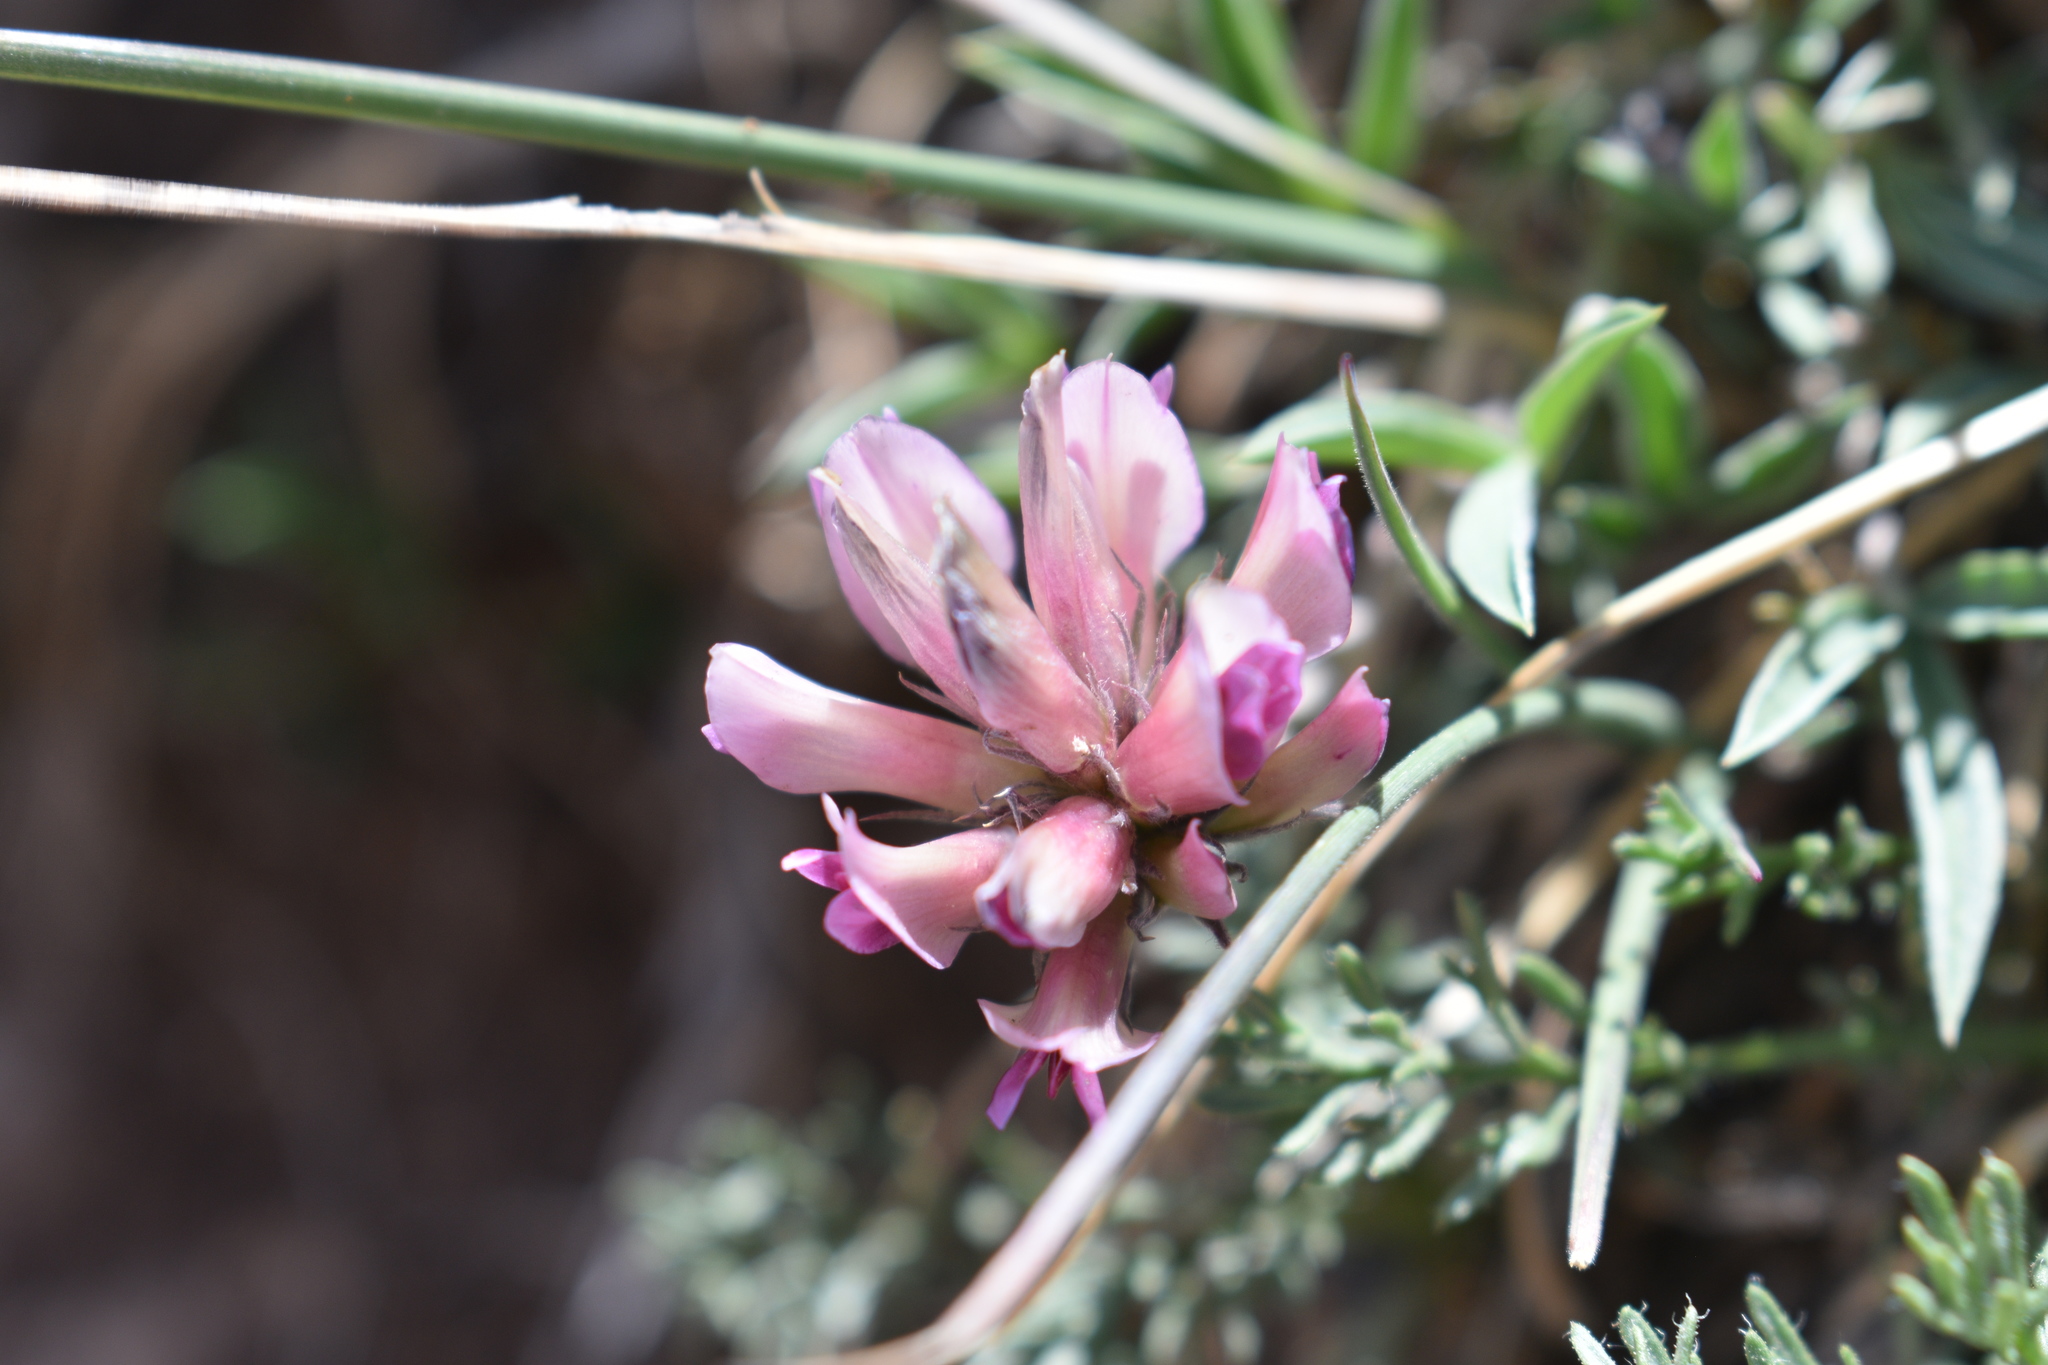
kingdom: Plantae
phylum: Tracheophyta
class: Magnoliopsida
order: Fabales
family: Fabaceae
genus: Trifolium
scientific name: Trifolium dasyphyllum
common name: Whip-root clover
